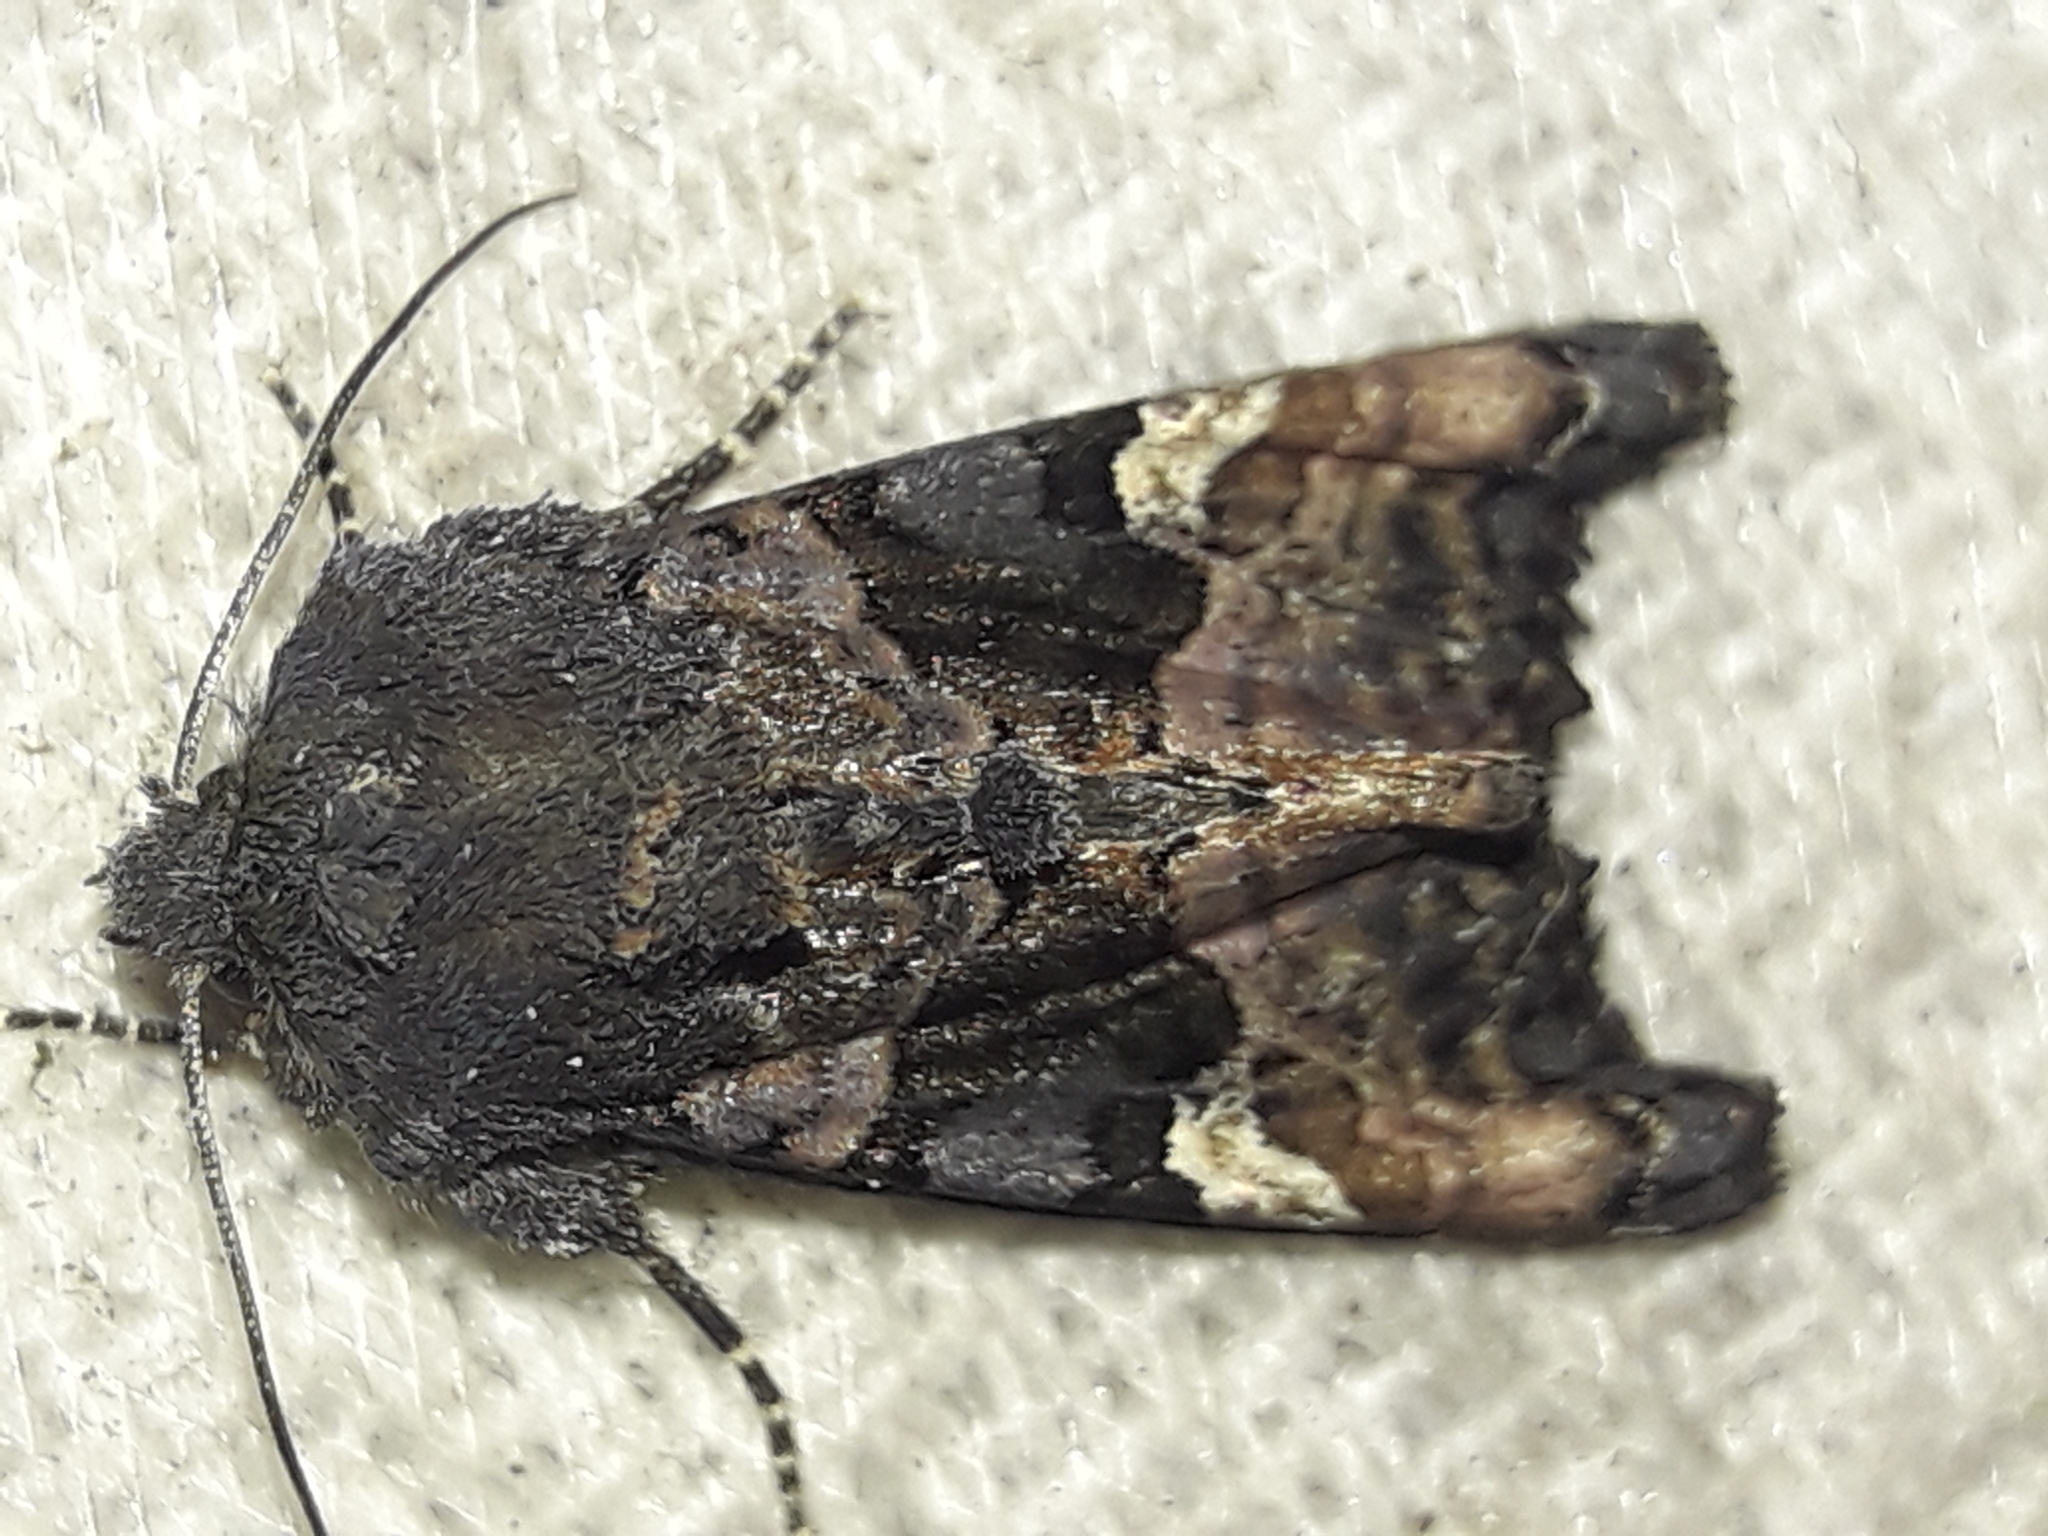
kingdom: Animalia
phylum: Arthropoda
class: Insecta
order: Lepidoptera
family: Noctuidae
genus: Euplexia
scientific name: Euplexia lucipara
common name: Small angle shades
